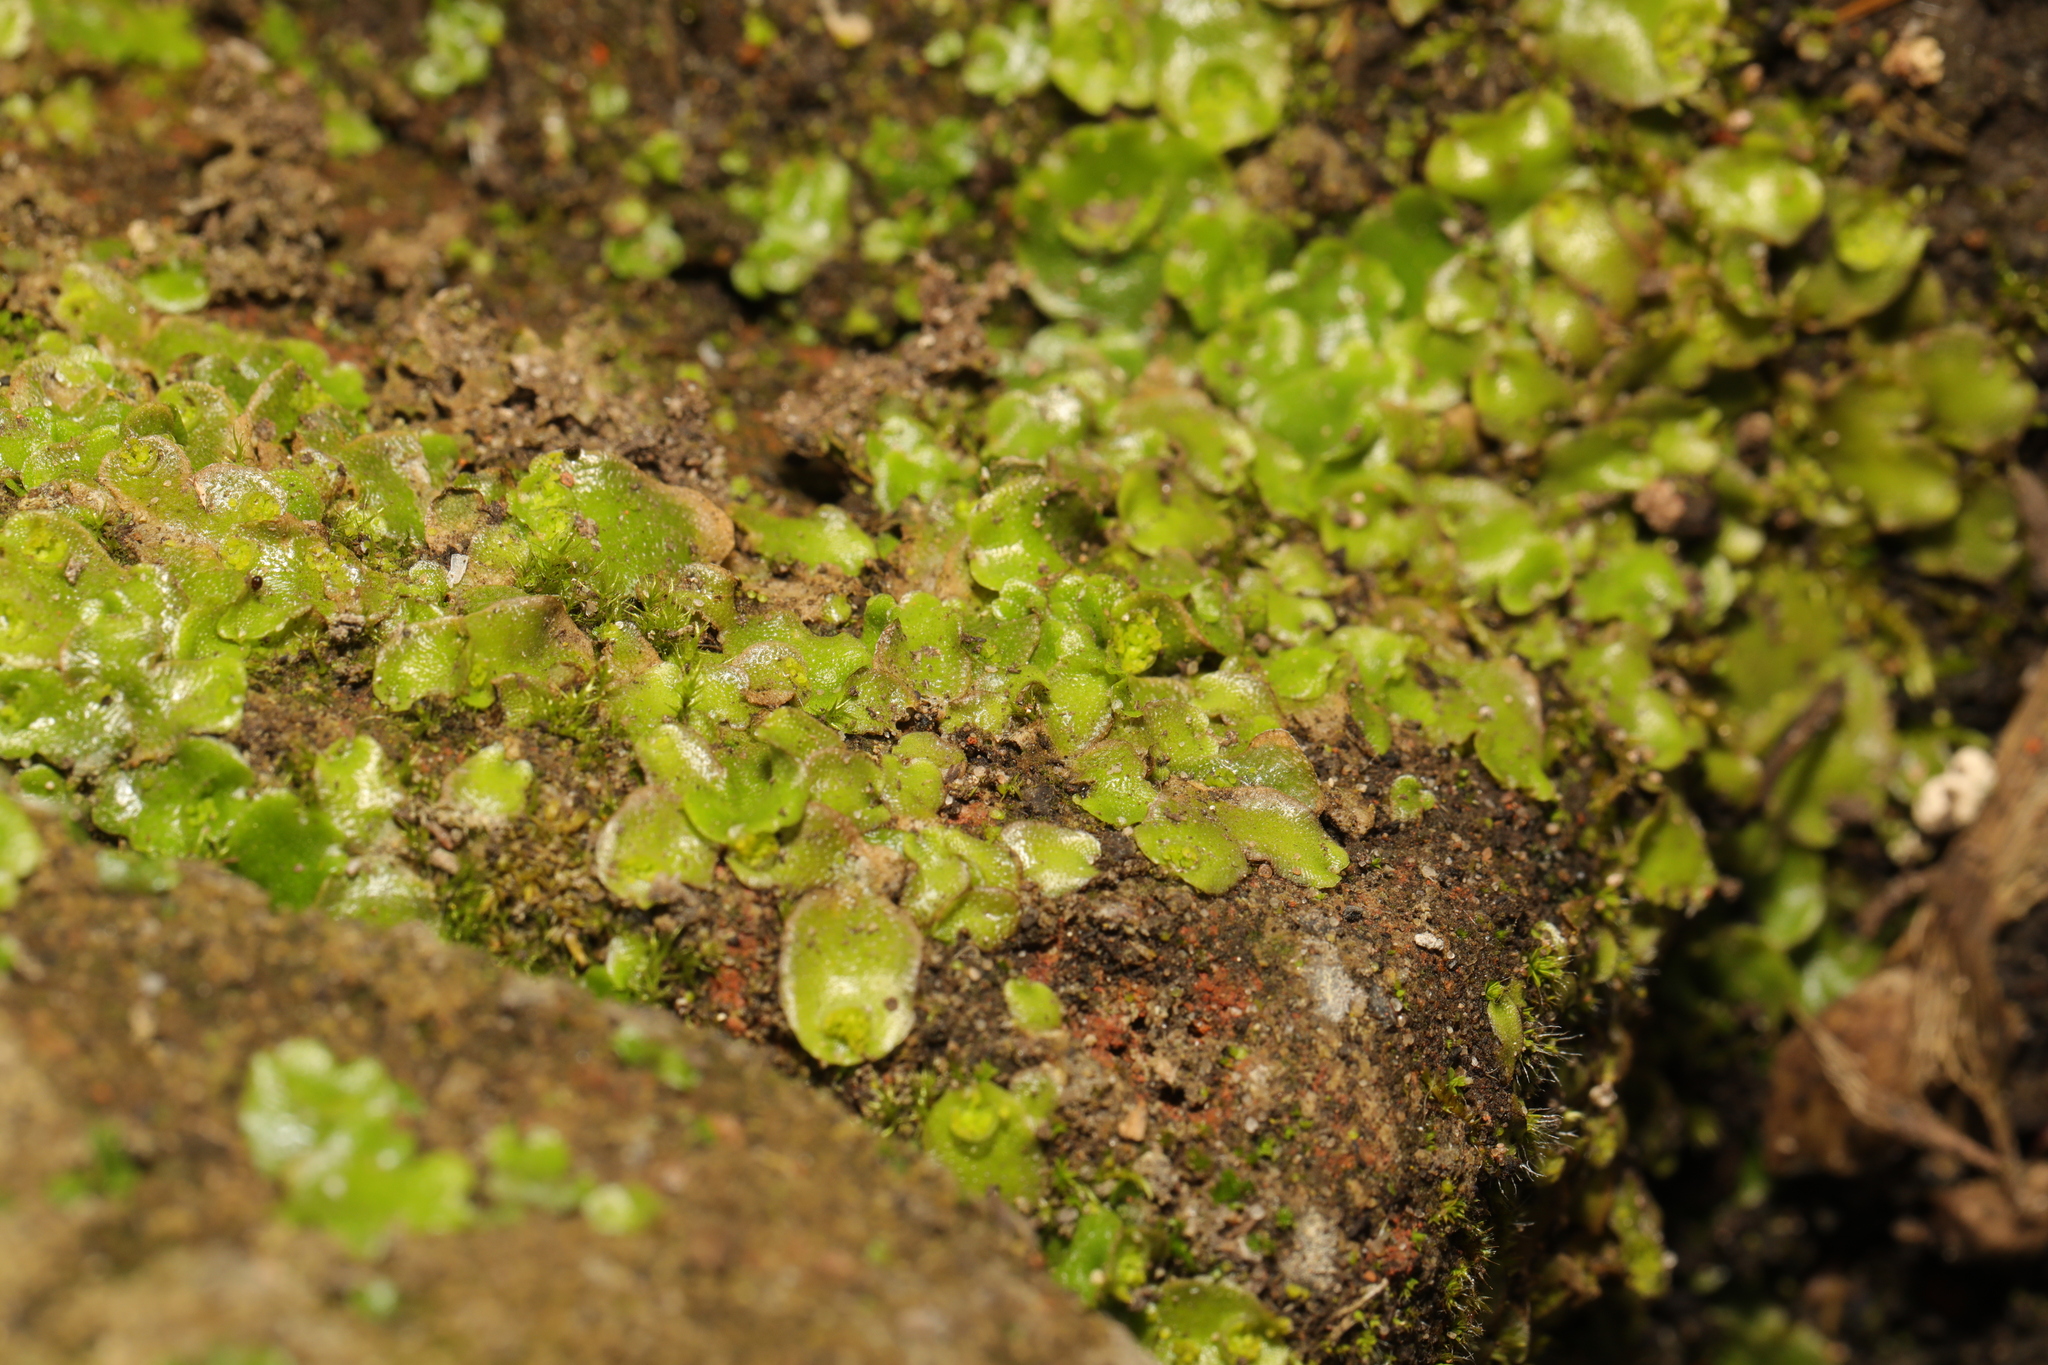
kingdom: Plantae
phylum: Marchantiophyta
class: Marchantiopsida
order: Lunulariales
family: Lunulariaceae
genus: Lunularia
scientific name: Lunularia cruciata
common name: Crescent-cup liverwort
